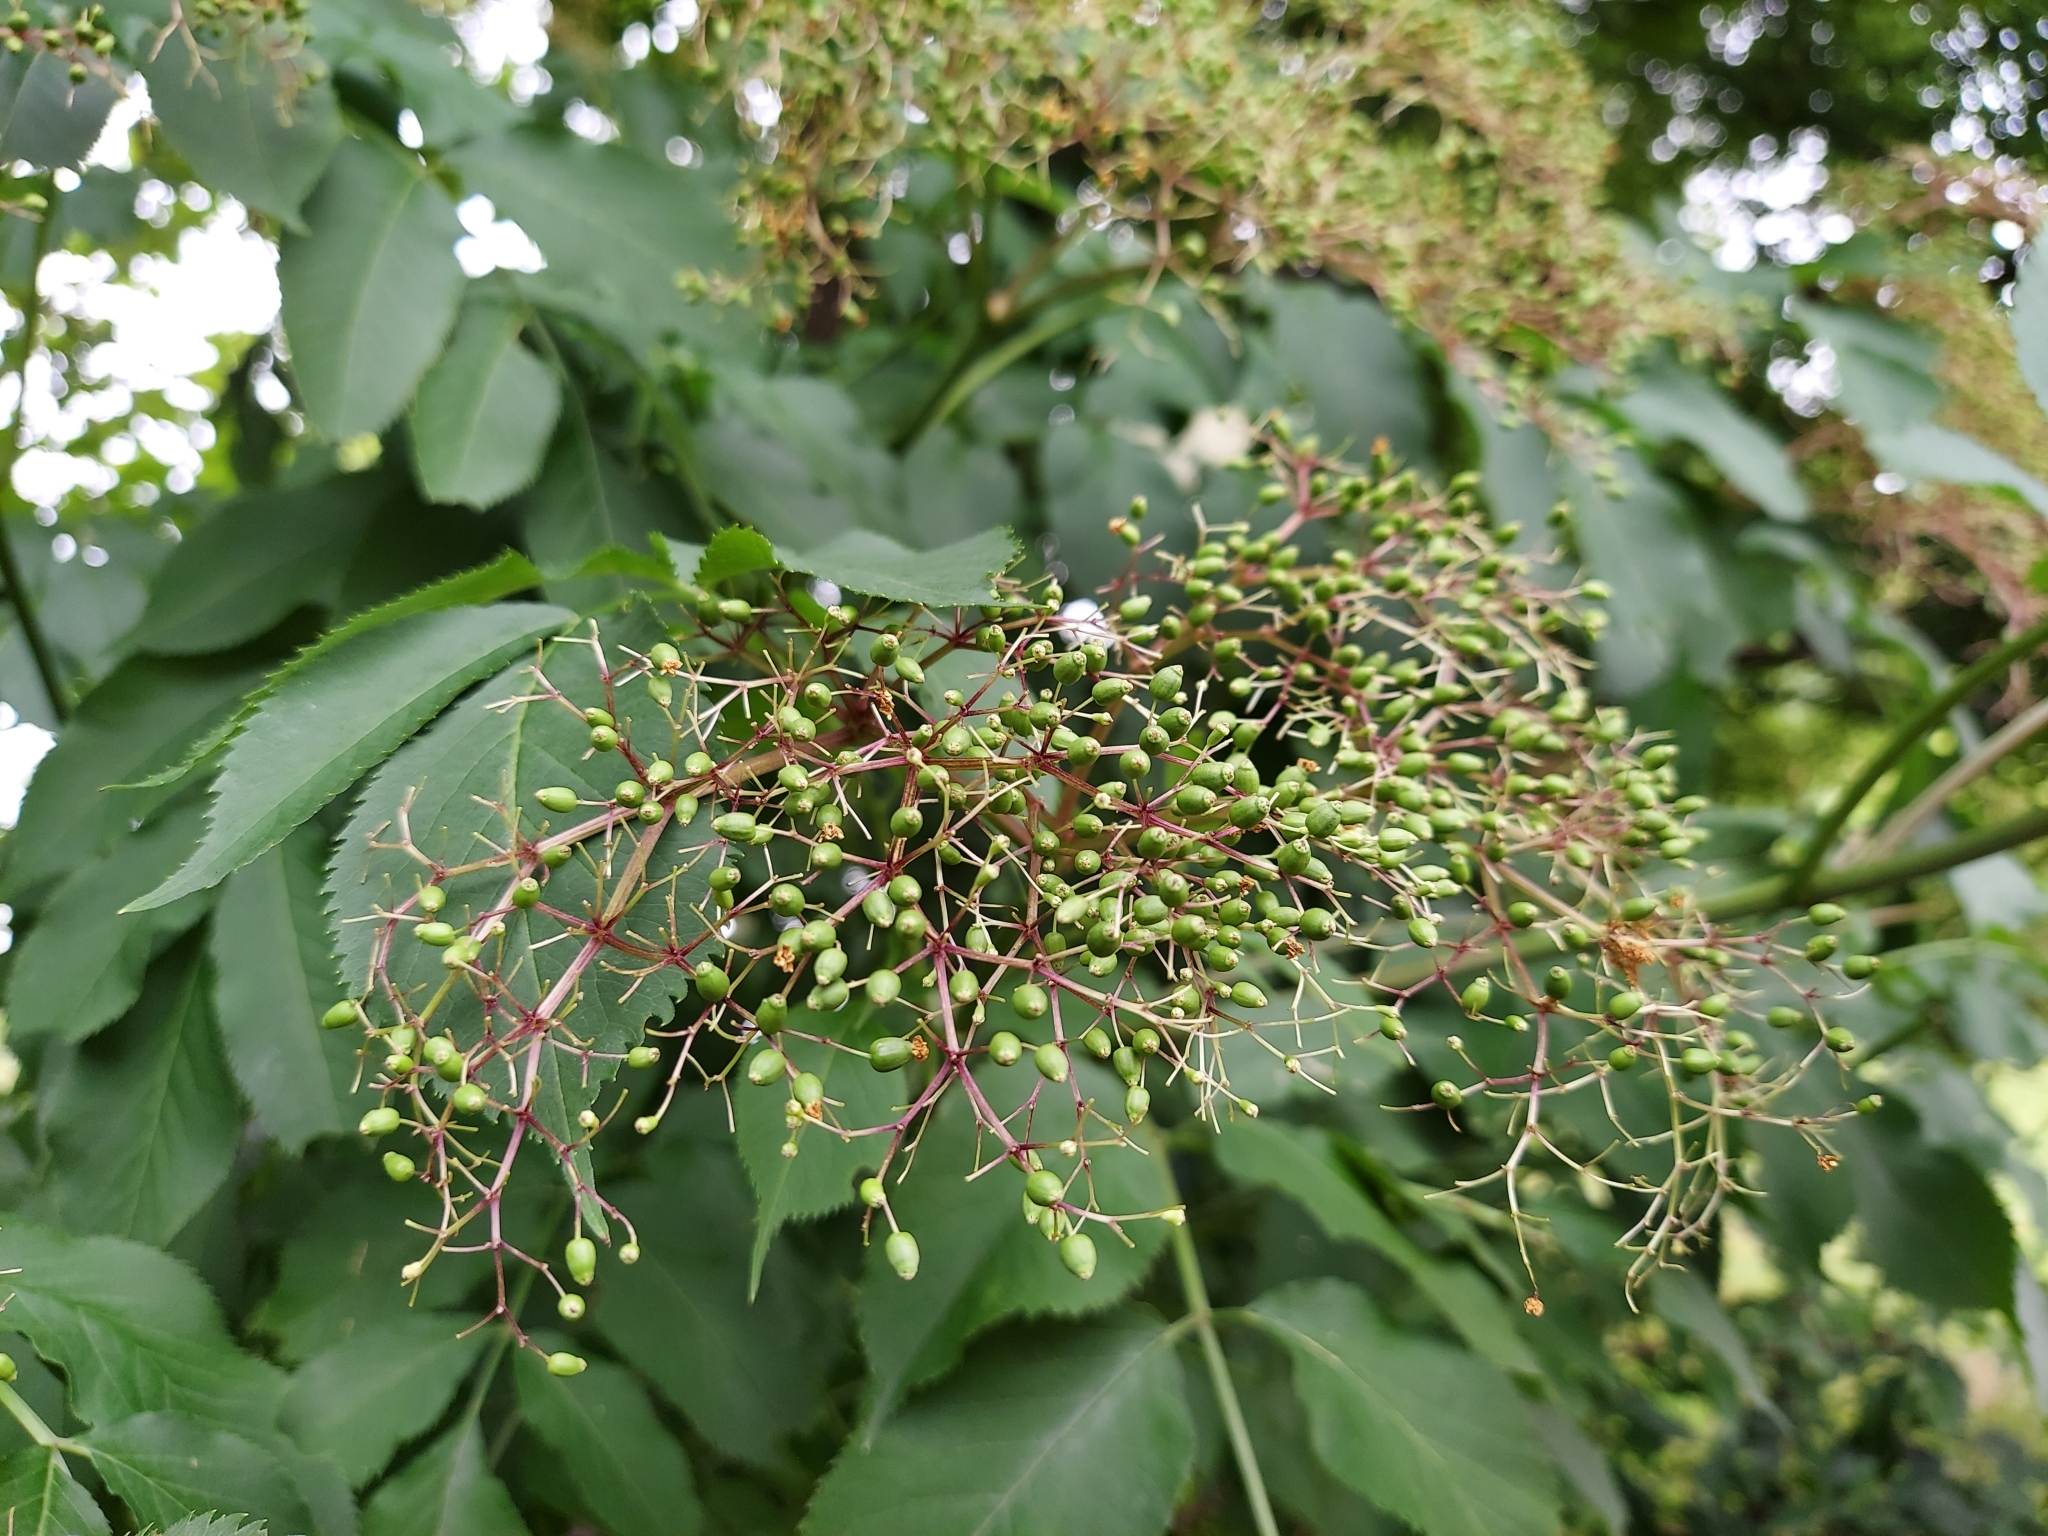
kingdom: Plantae
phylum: Tracheophyta
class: Magnoliopsida
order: Dipsacales
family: Viburnaceae
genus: Sambucus
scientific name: Sambucus canadensis
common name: American elder
